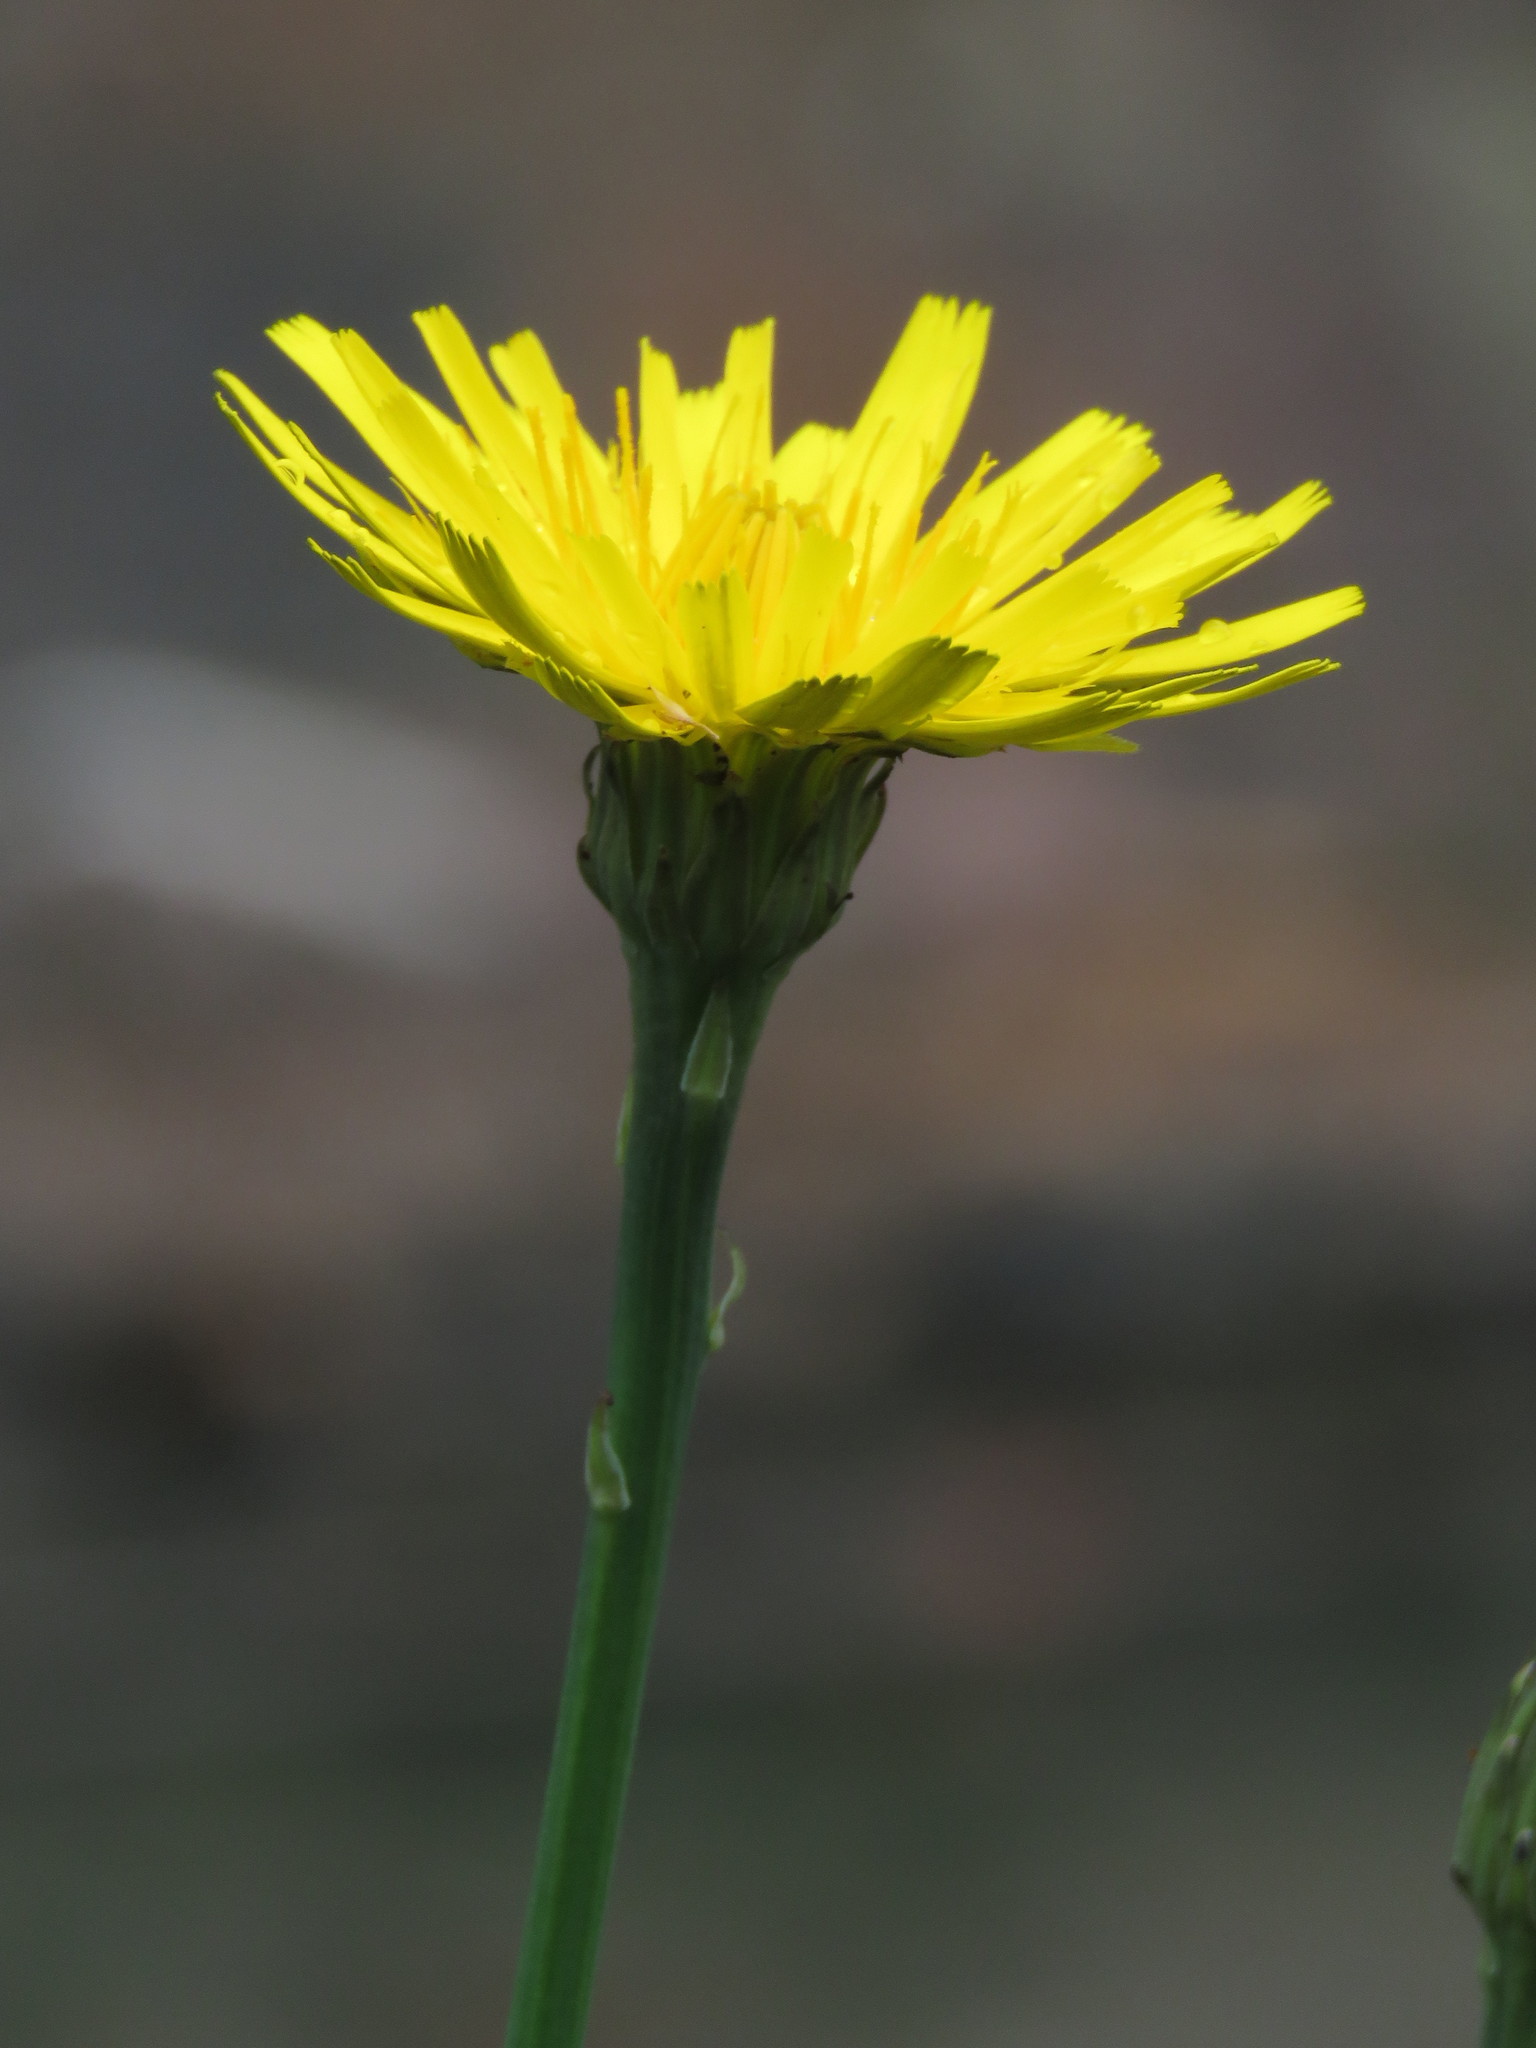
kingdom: Plantae
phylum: Tracheophyta
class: Magnoliopsida
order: Asterales
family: Asteraceae
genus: Hypochaeris
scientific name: Hypochaeris radicata
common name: Flatweed
